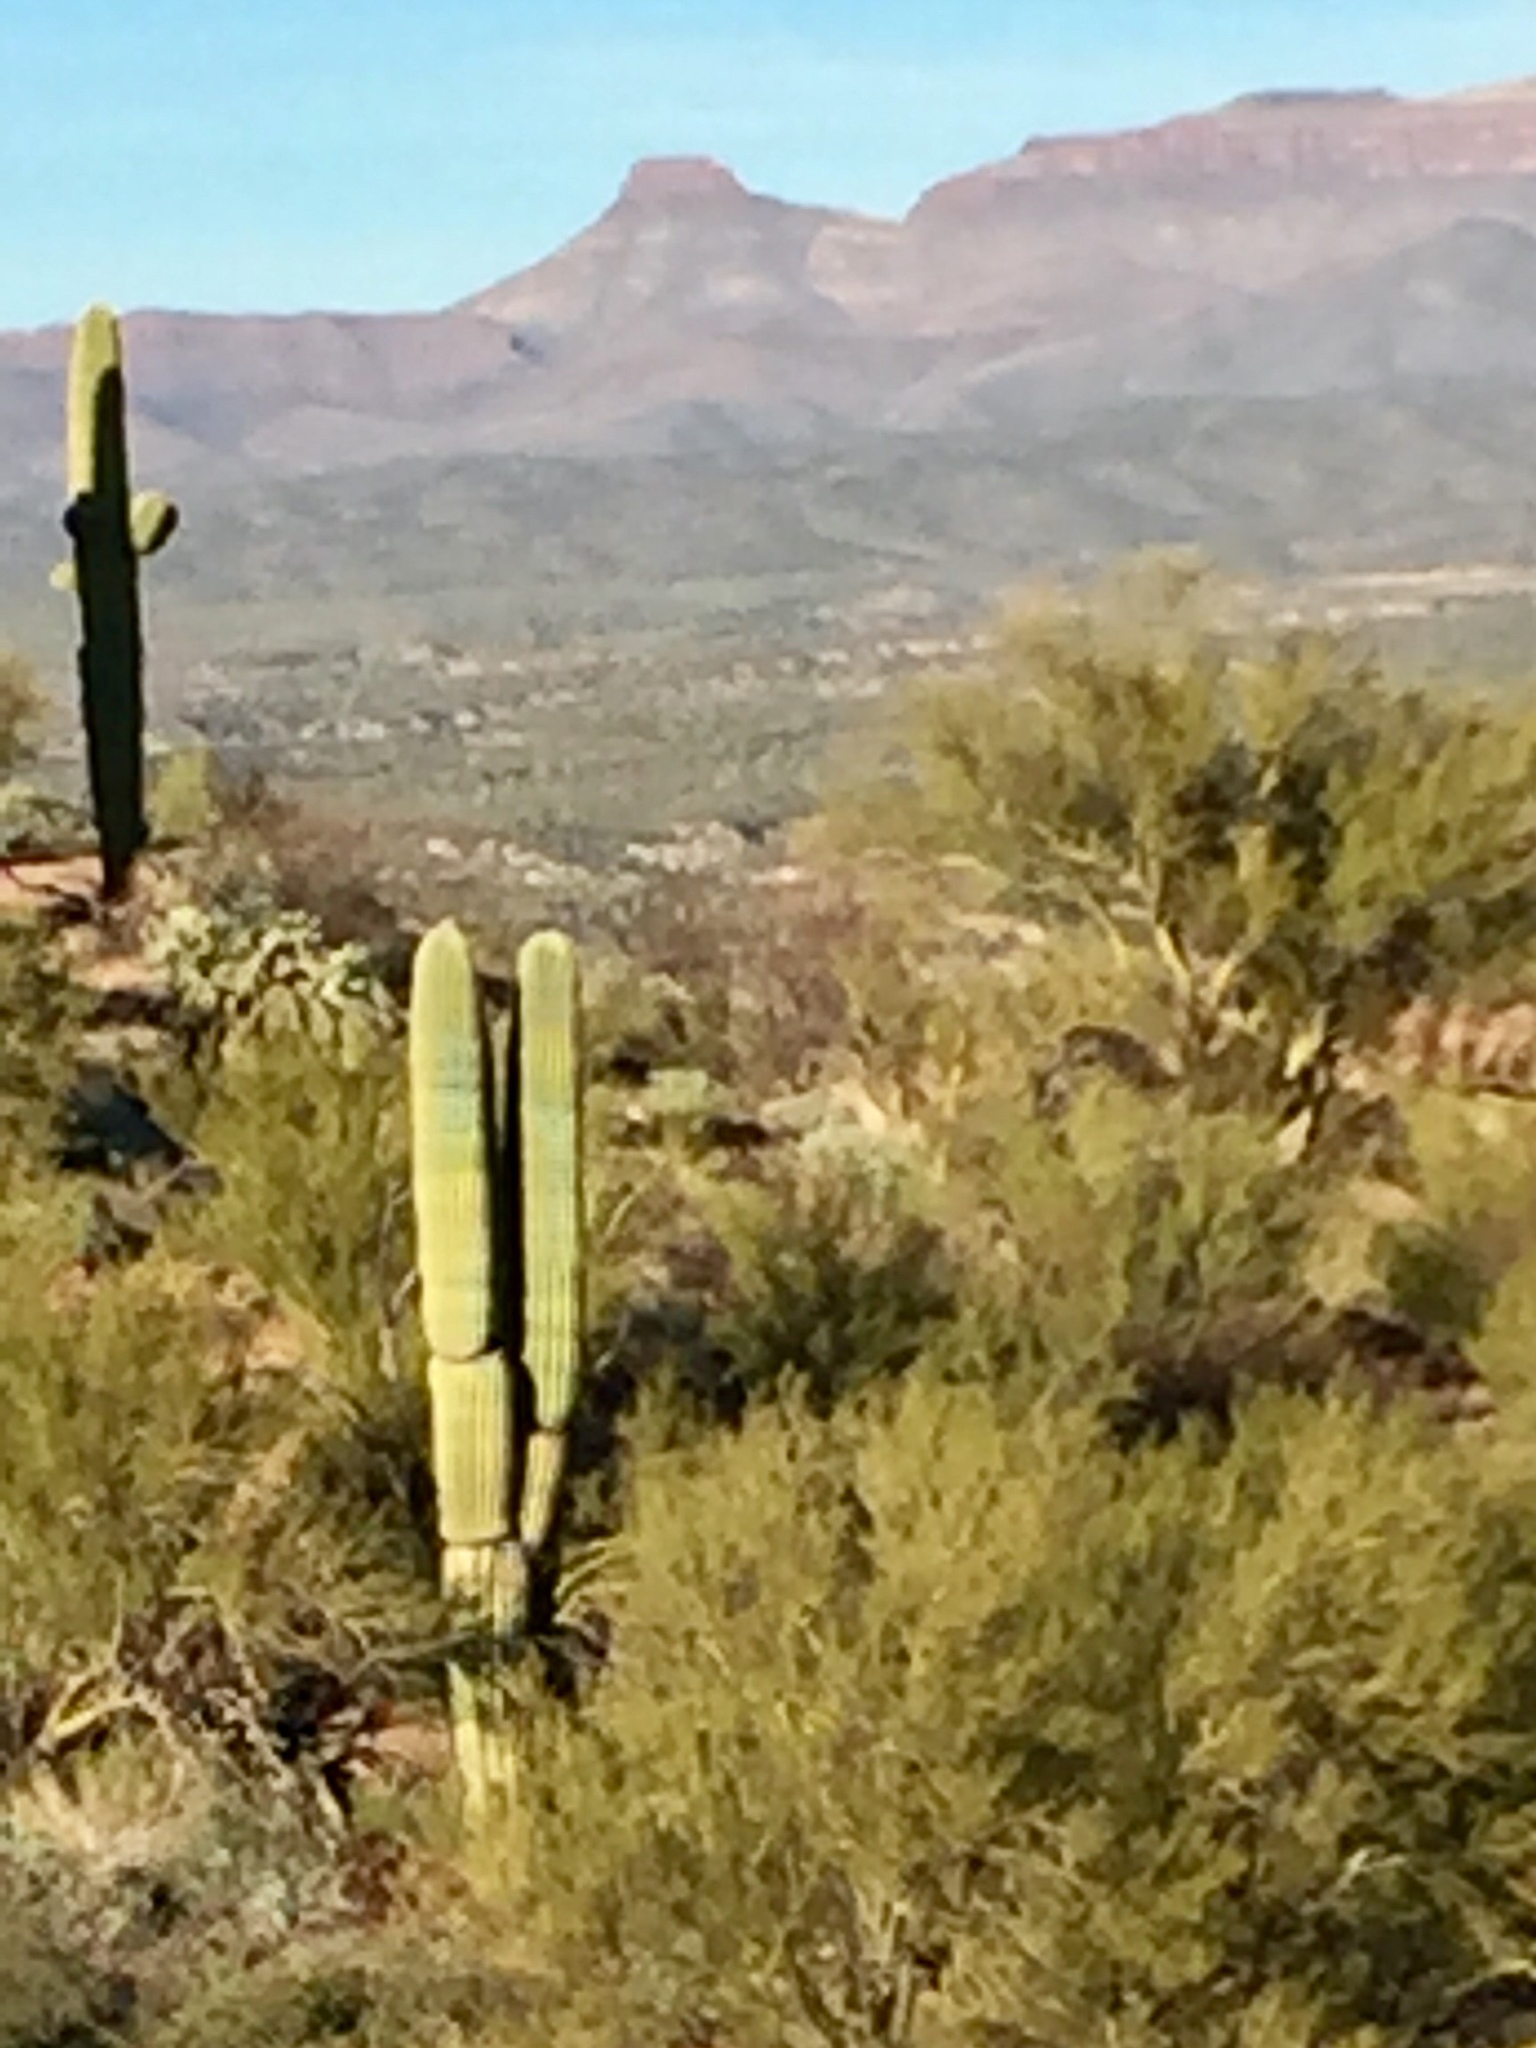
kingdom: Plantae
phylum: Tracheophyta
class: Magnoliopsida
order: Caryophyllales
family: Cactaceae
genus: Carnegiea
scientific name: Carnegiea gigantea
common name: Saguaro
